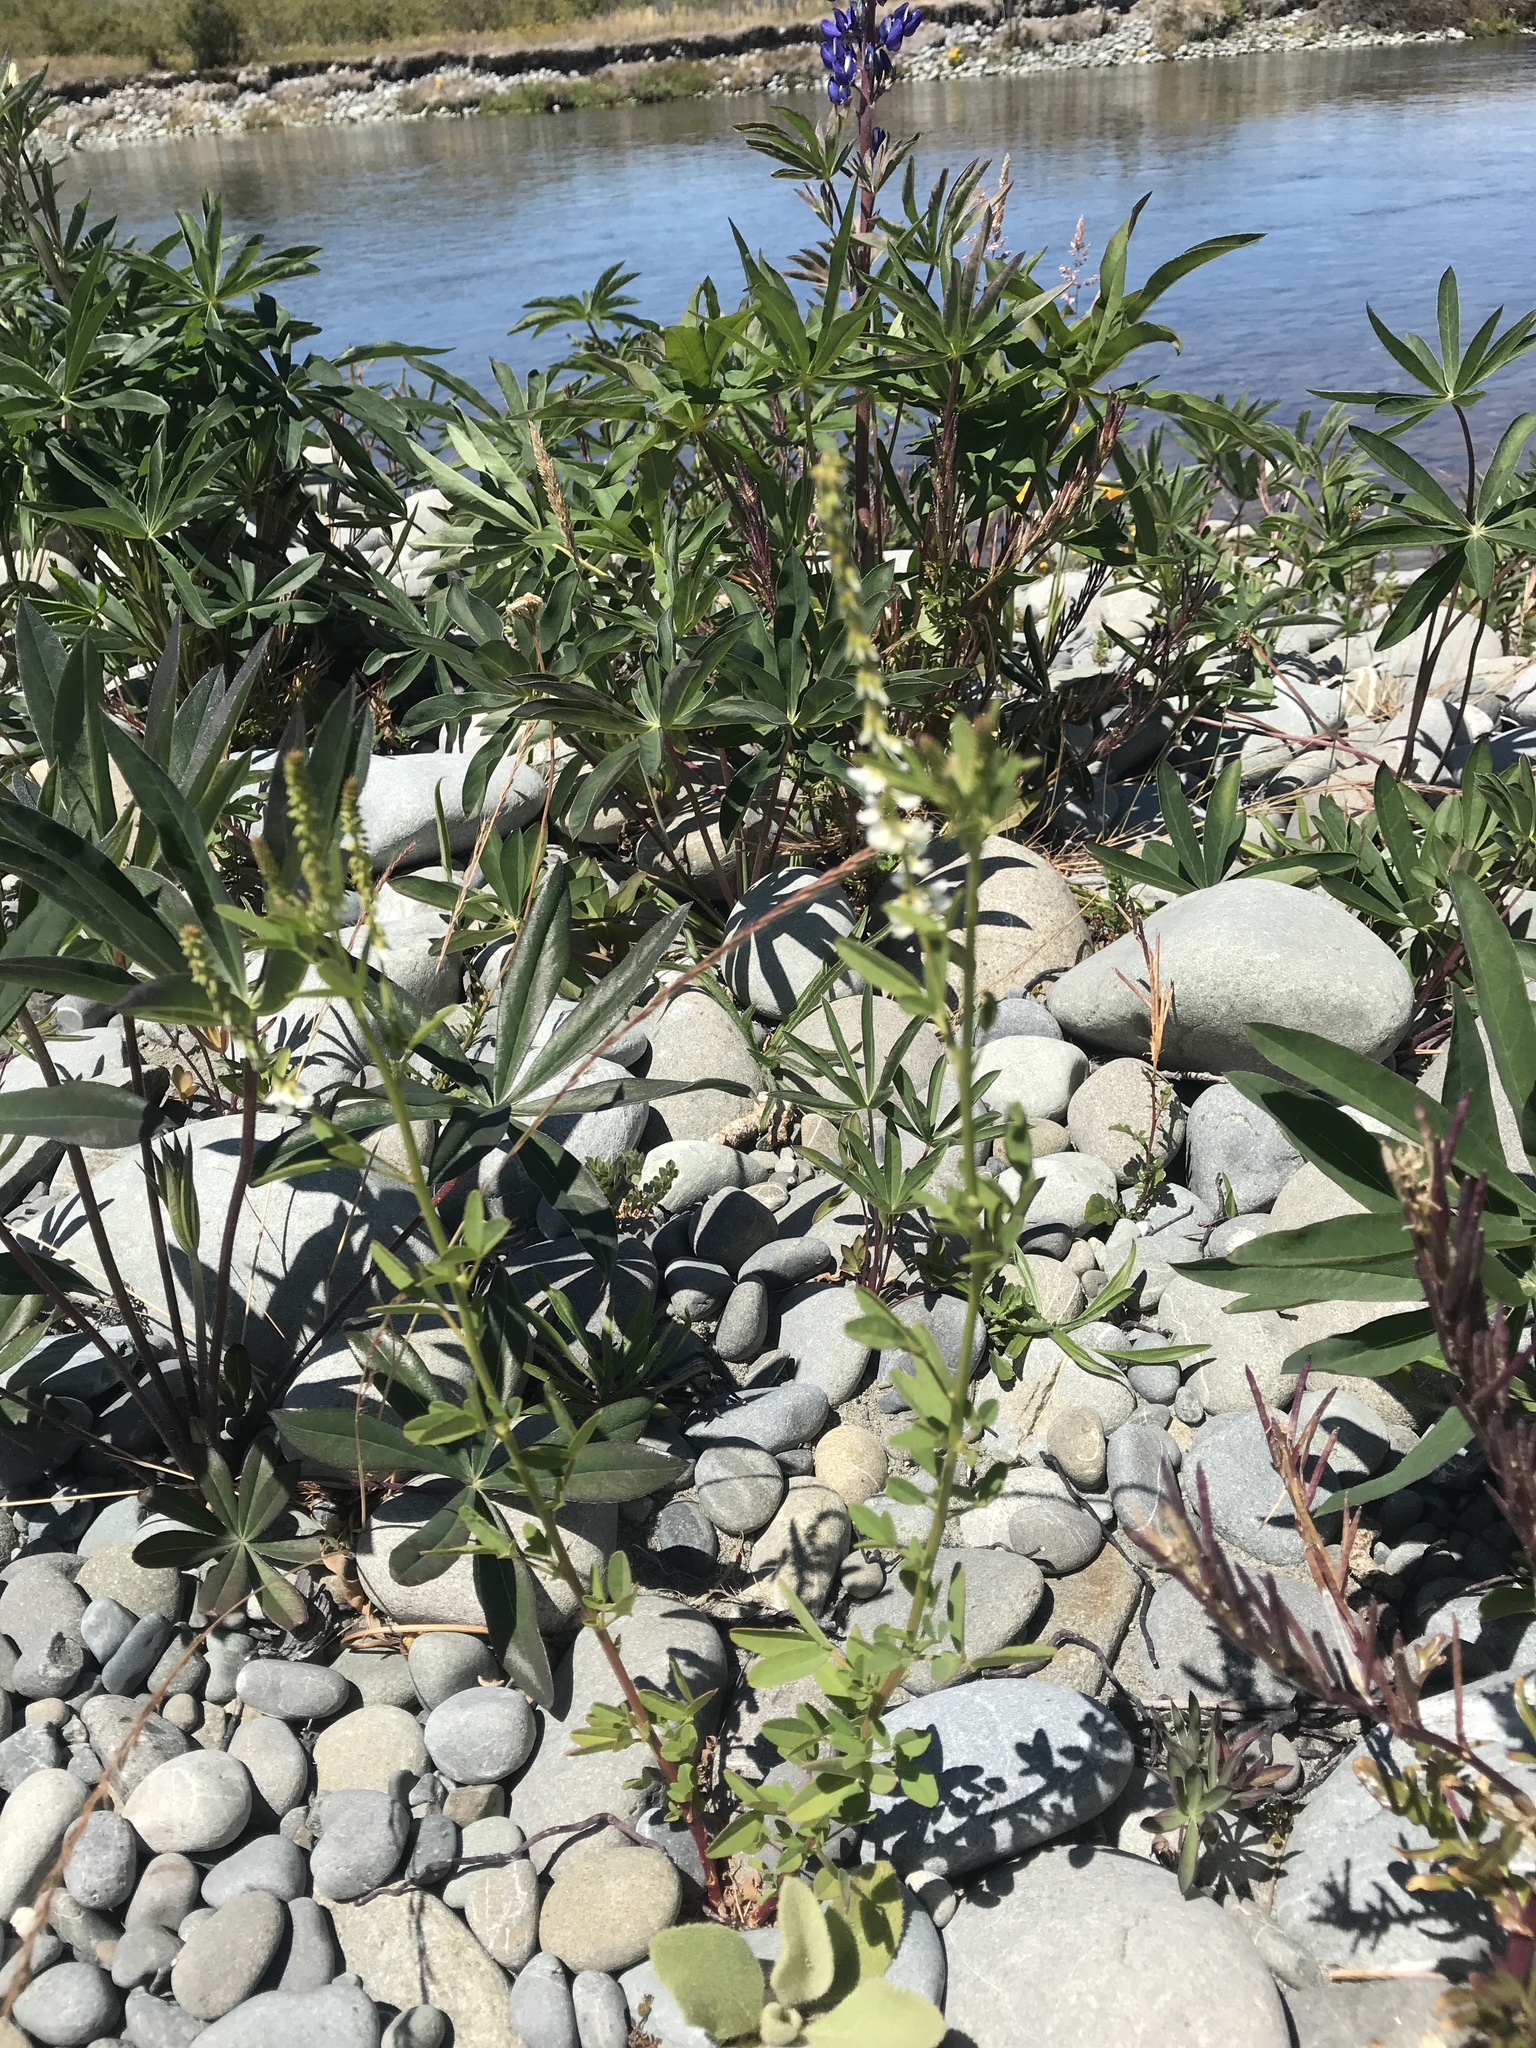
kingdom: Plantae
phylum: Tracheophyta
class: Magnoliopsida
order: Fabales
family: Fabaceae
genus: Melilotus
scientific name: Melilotus albus
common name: White melilot
